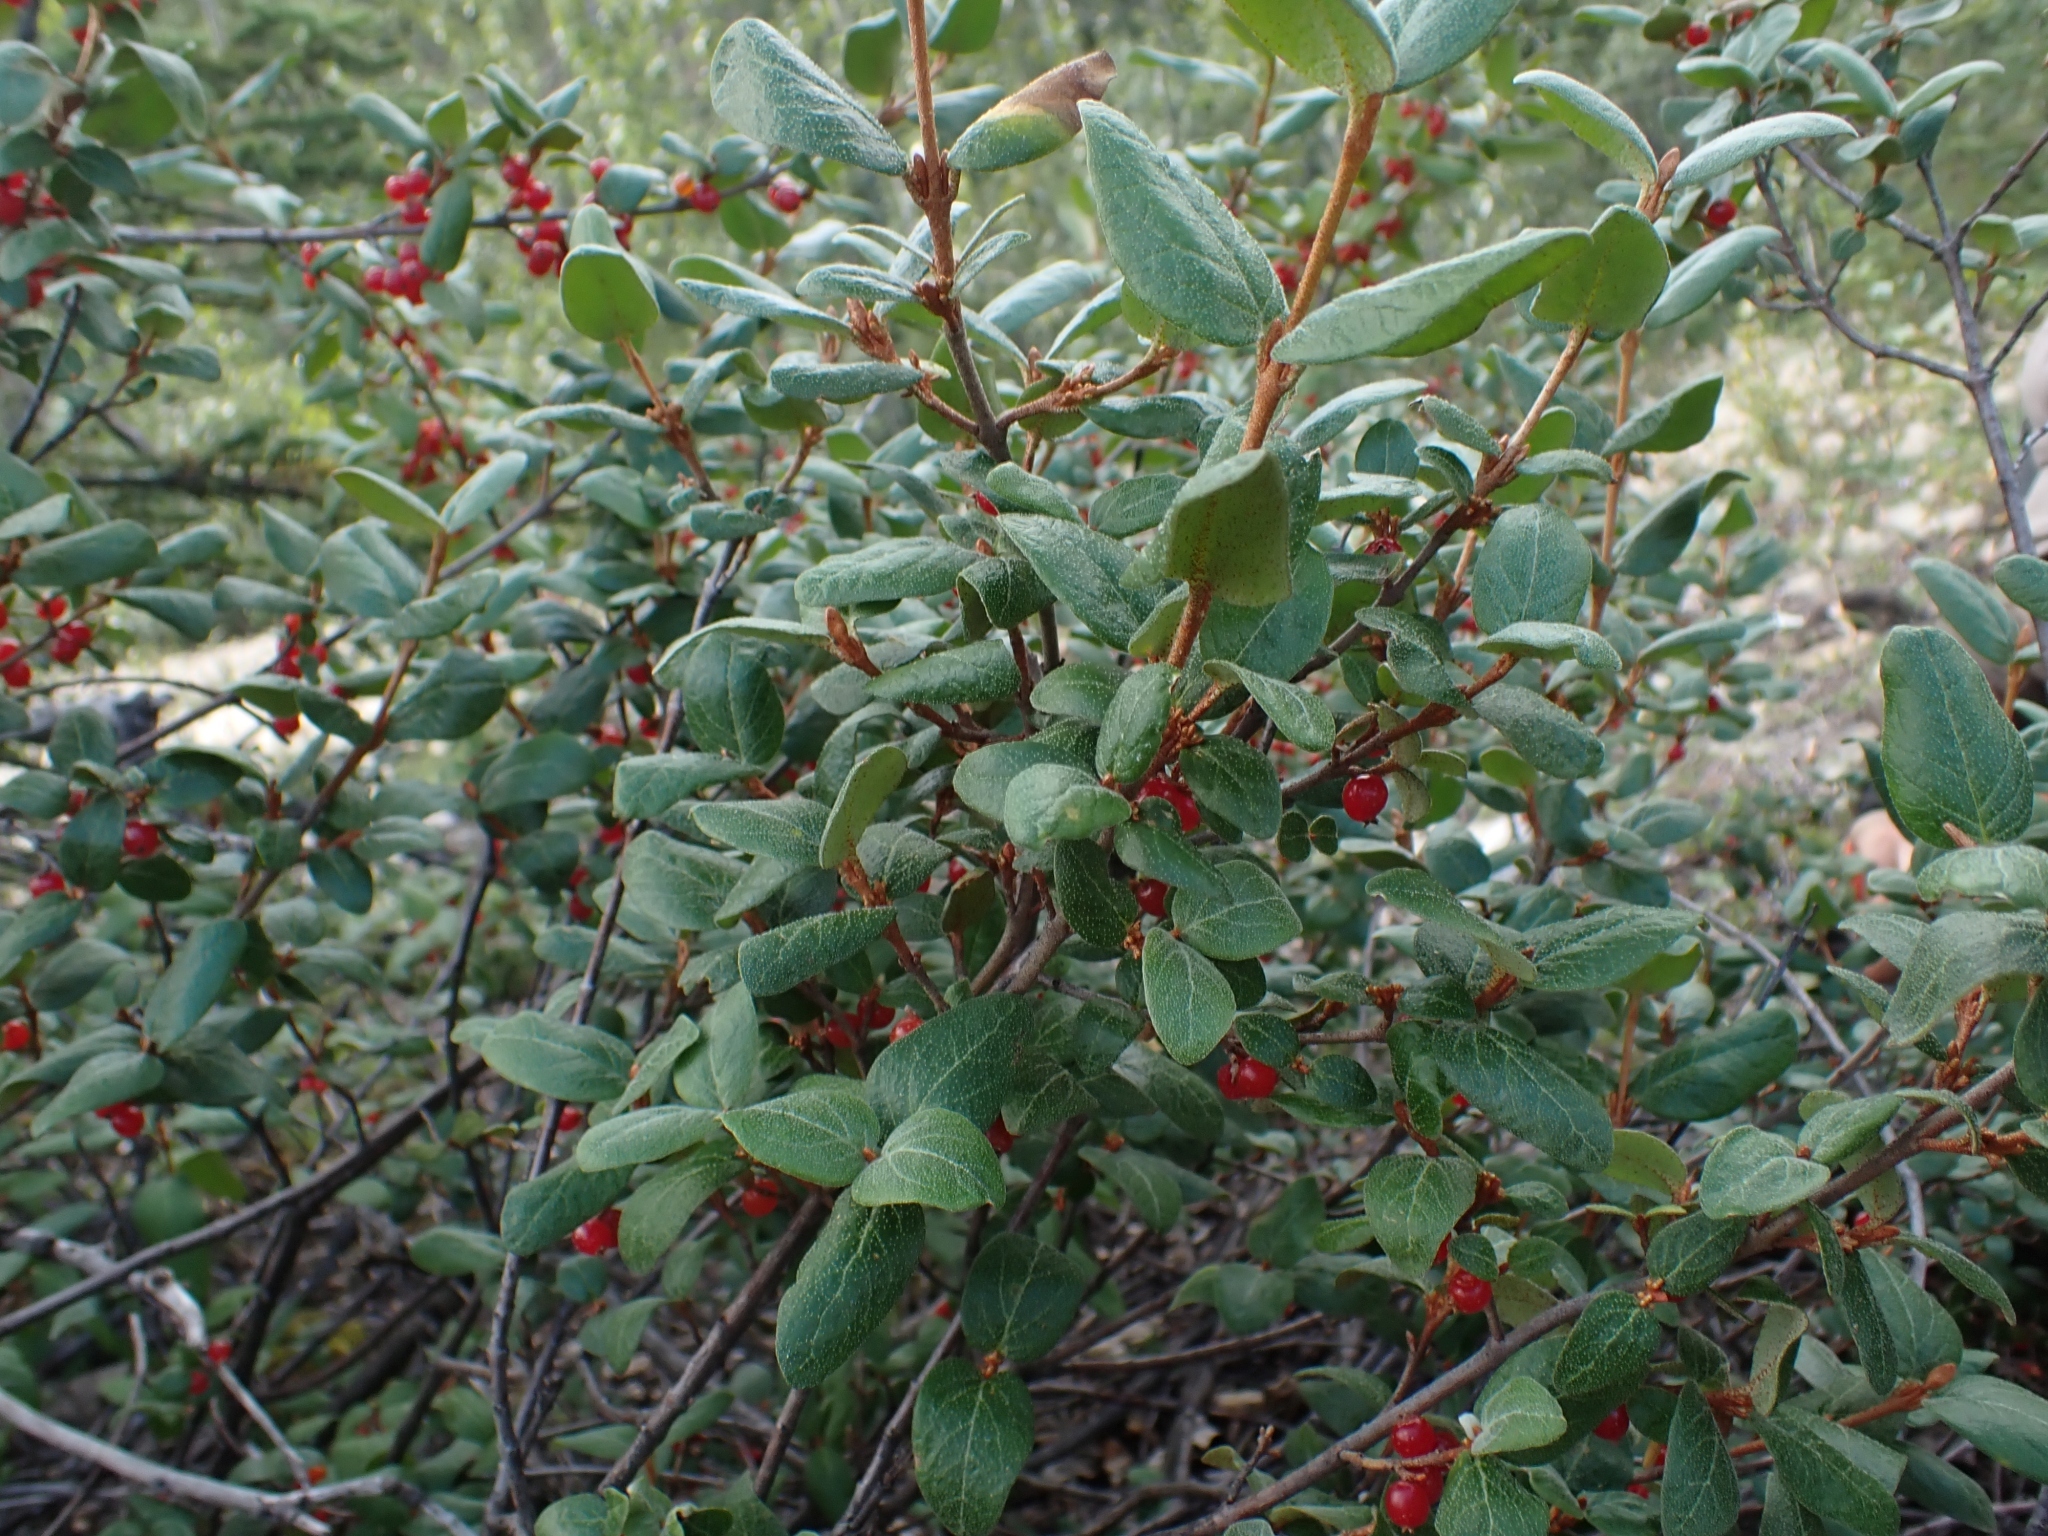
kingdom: Plantae
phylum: Tracheophyta
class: Magnoliopsida
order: Rosales
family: Elaeagnaceae
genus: Shepherdia
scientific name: Shepherdia canadensis
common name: Soapberry
